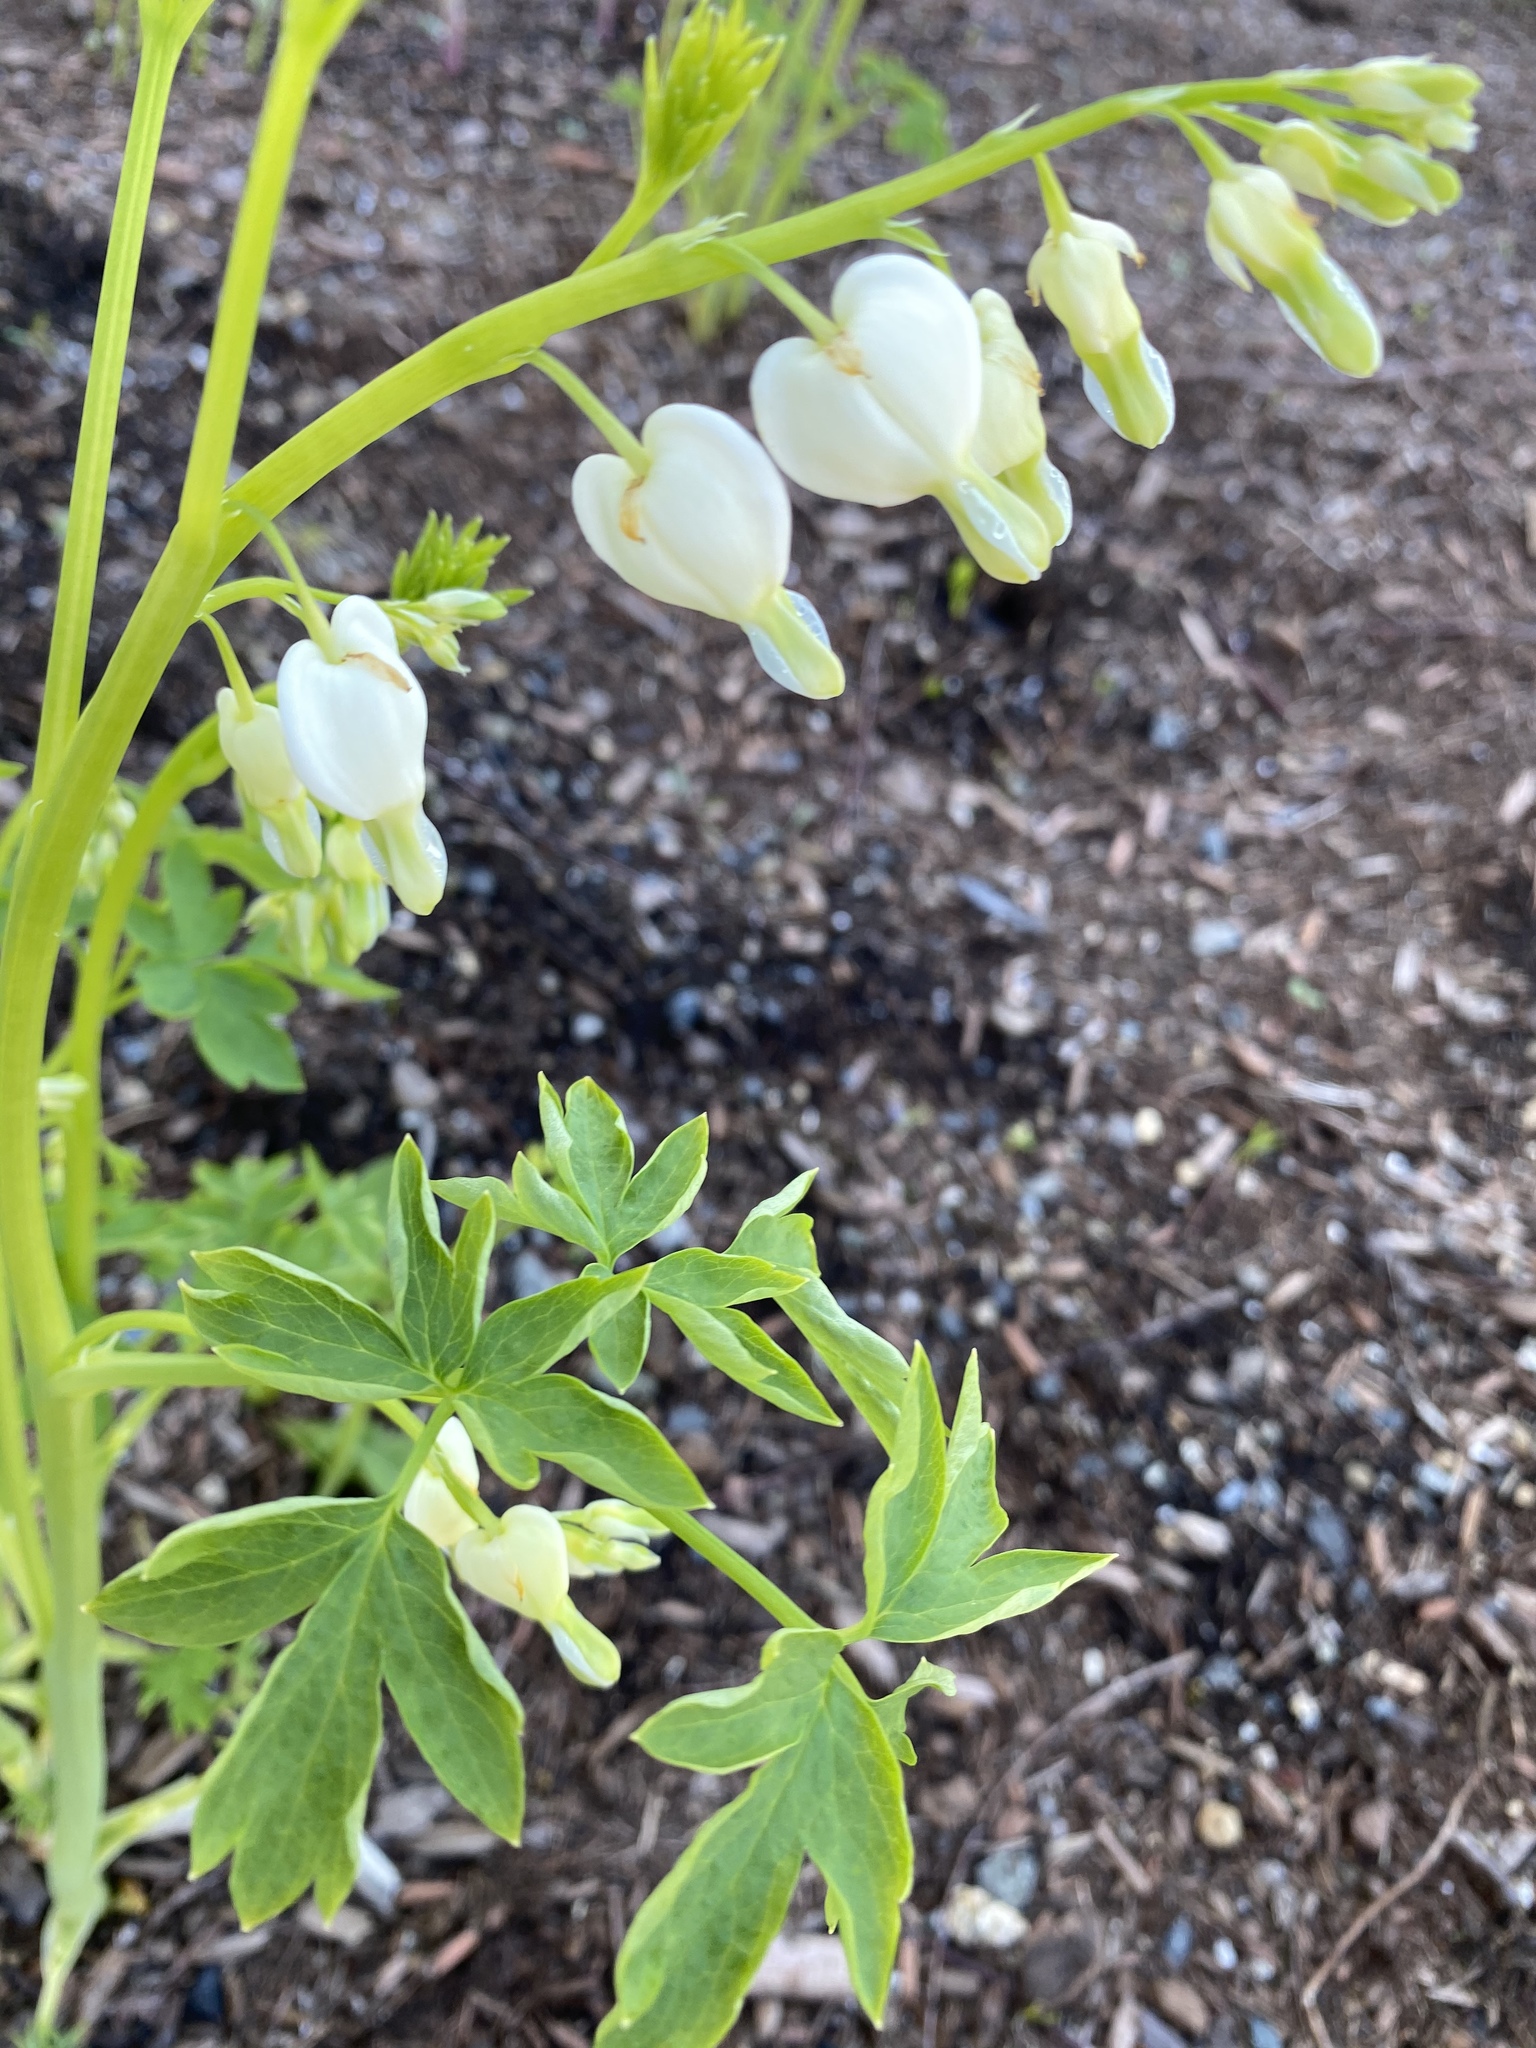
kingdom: Plantae
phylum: Tracheophyta
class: Magnoliopsida
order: Ranunculales
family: Papaveraceae
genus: Lamprocapnos
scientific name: Lamprocapnos spectabilis
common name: Asian bleeding-heart
